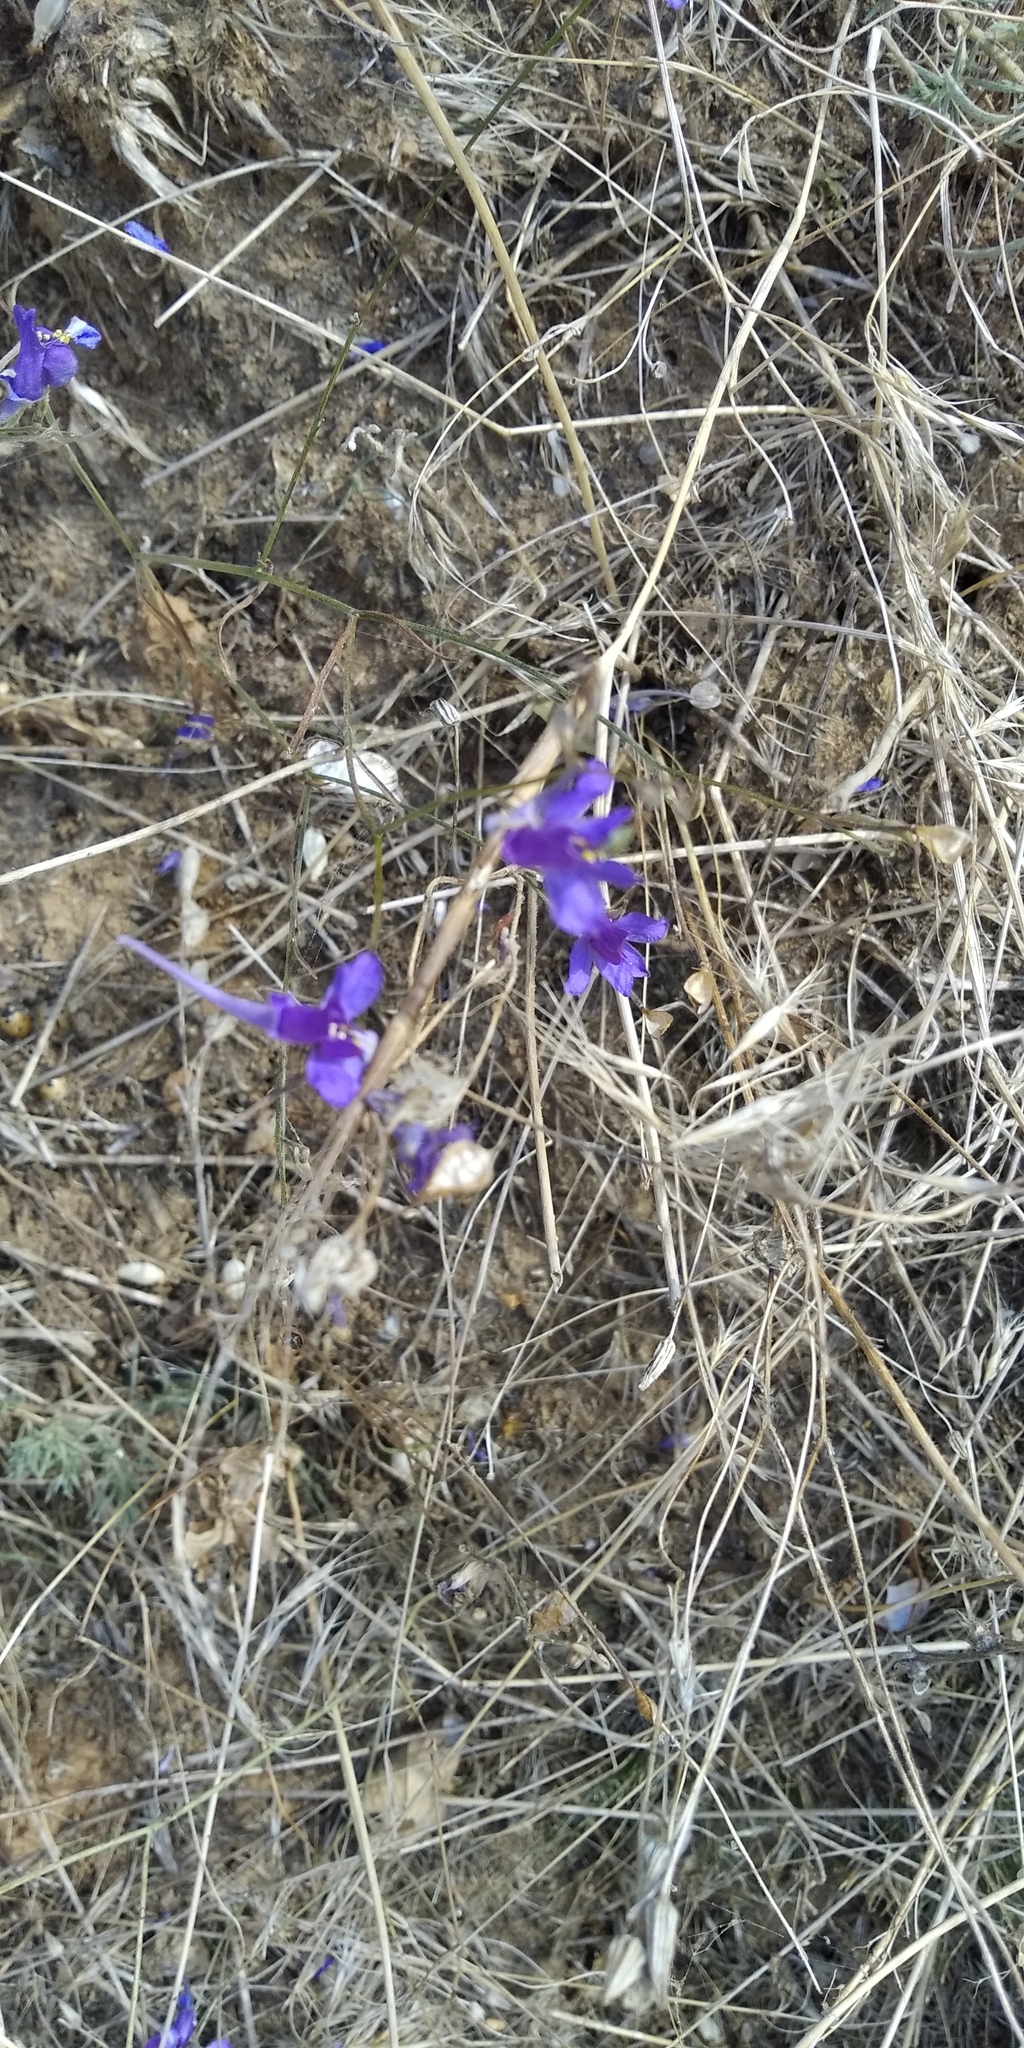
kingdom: Plantae
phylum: Tracheophyta
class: Magnoliopsida
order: Ranunculales
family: Ranunculaceae
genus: Delphinium
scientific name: Delphinium consolida
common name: Branching larkspur
